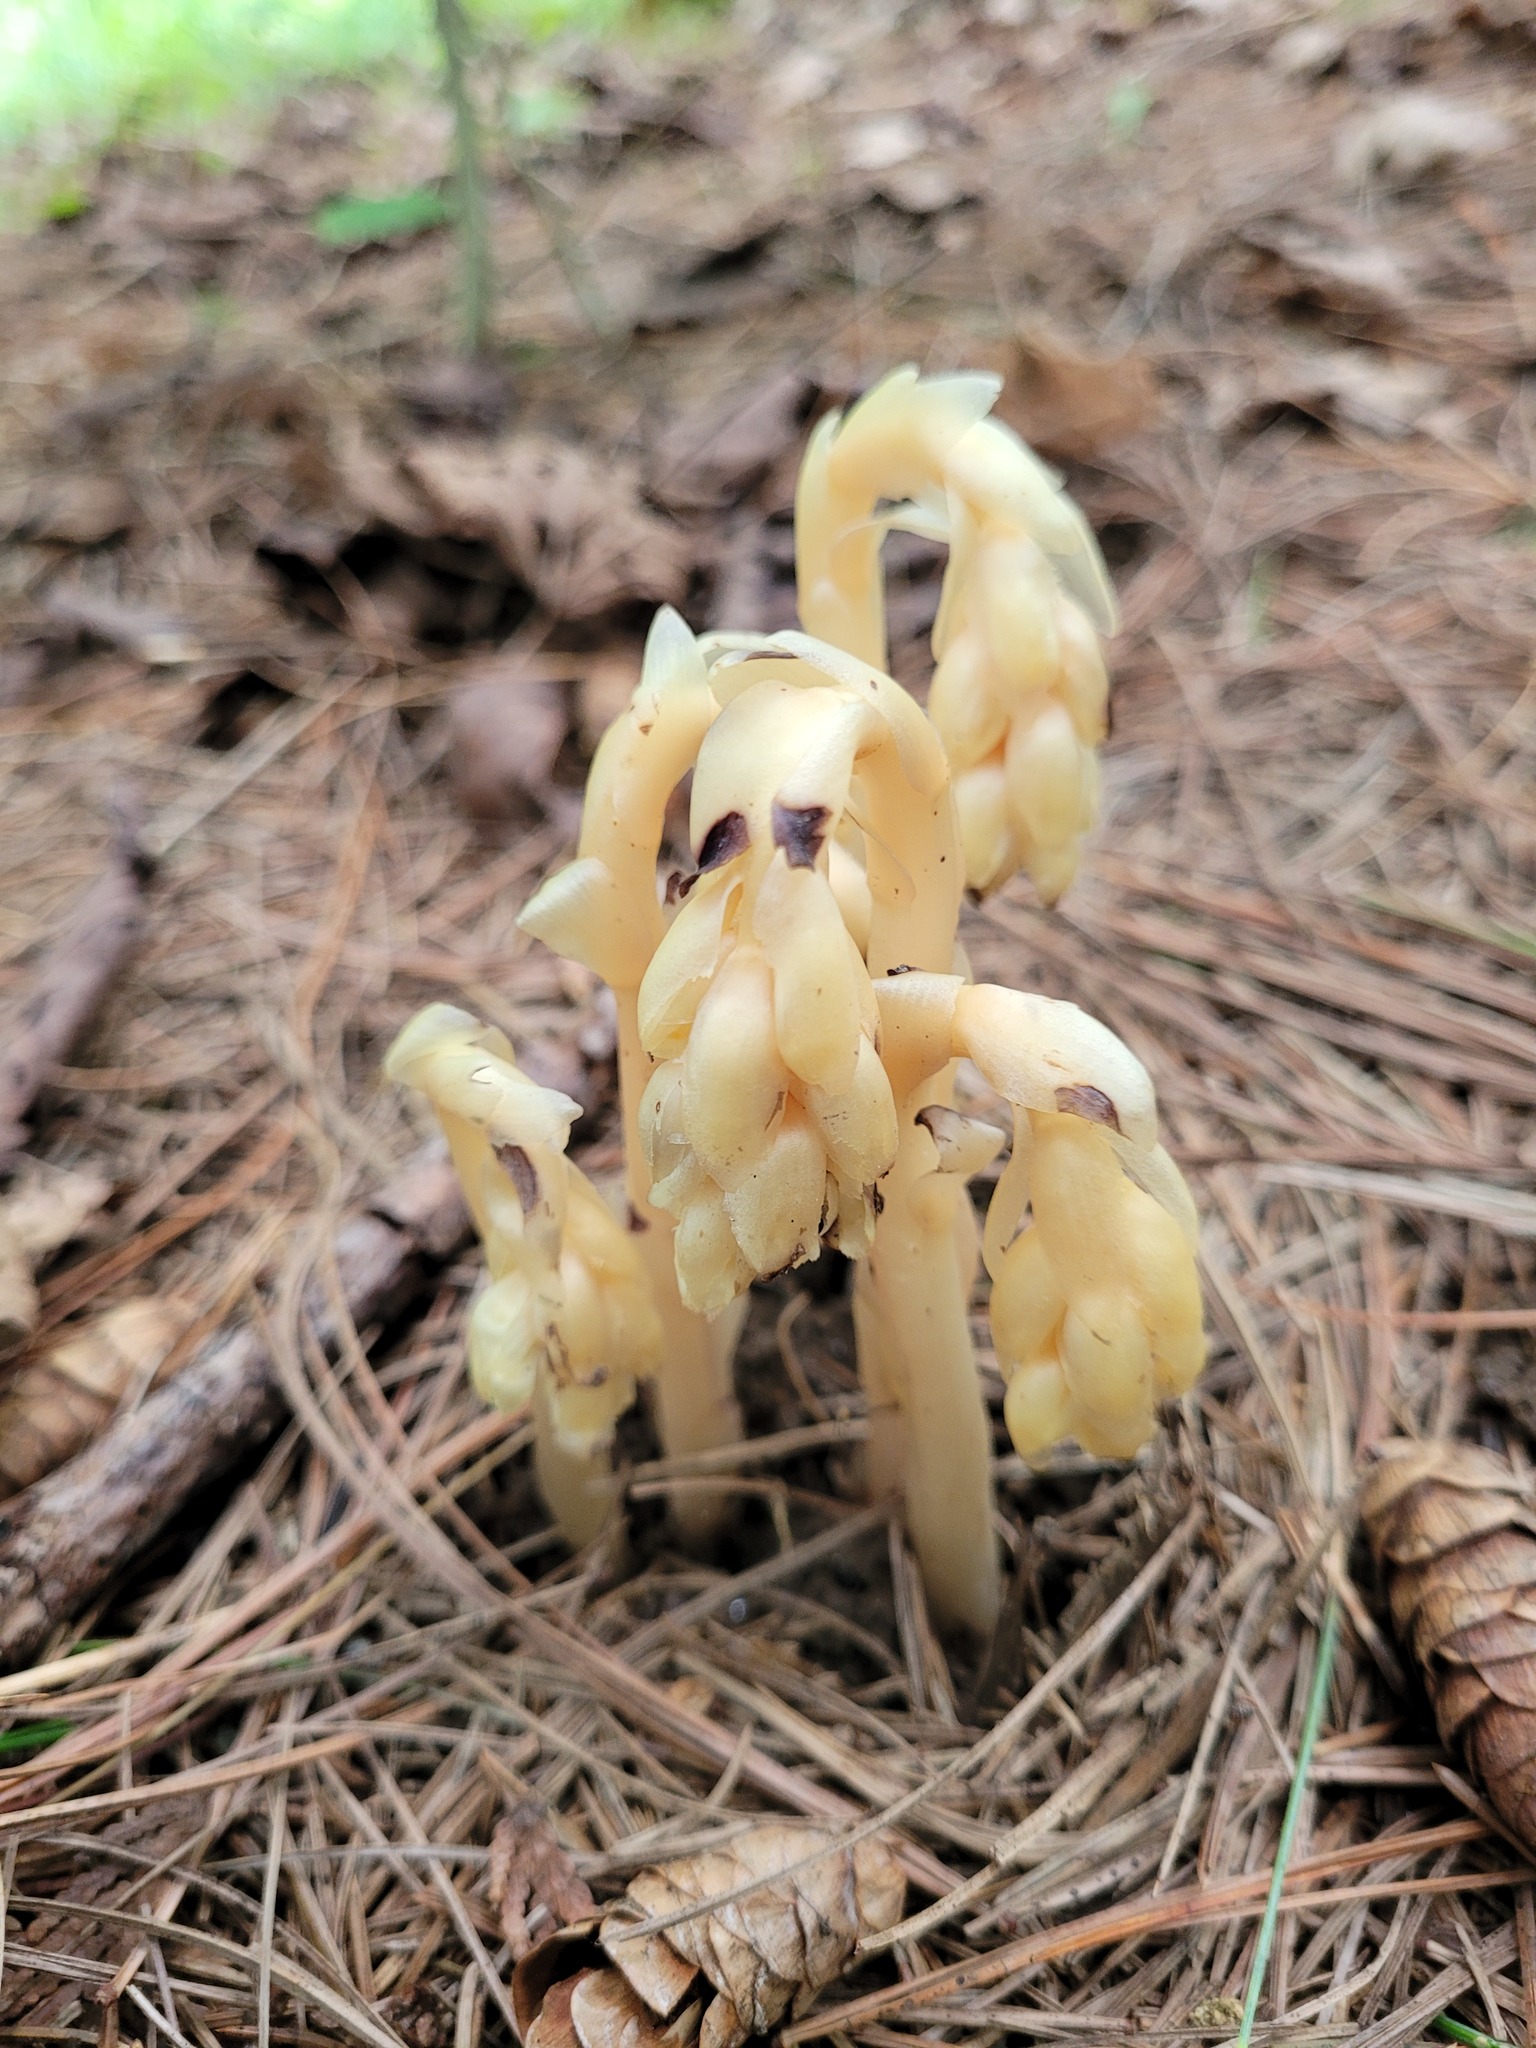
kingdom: Plantae
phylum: Tracheophyta
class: Magnoliopsida
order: Ericales
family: Ericaceae
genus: Hypopitys
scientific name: Hypopitys monotropa
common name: Yellow bird's-nest
